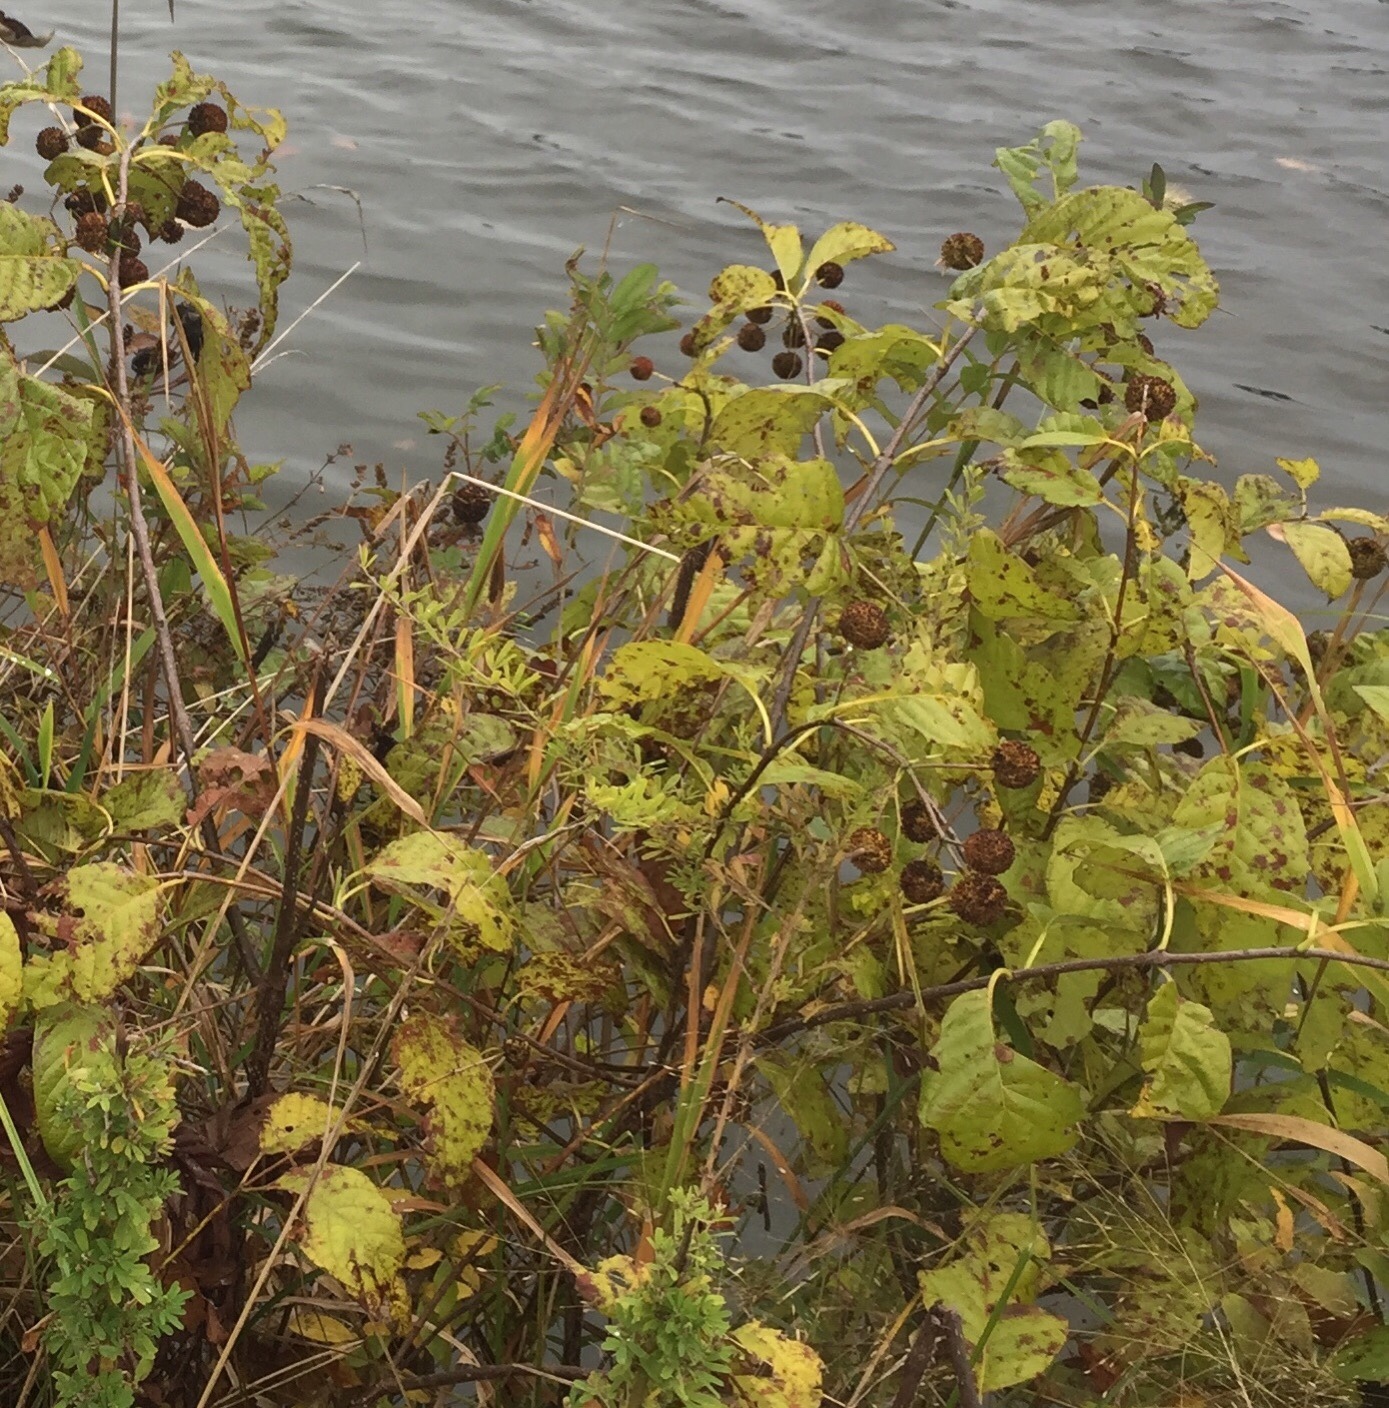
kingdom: Plantae
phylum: Tracheophyta
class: Magnoliopsida
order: Gentianales
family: Rubiaceae
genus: Cephalanthus
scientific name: Cephalanthus occidentalis
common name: Button-willow
